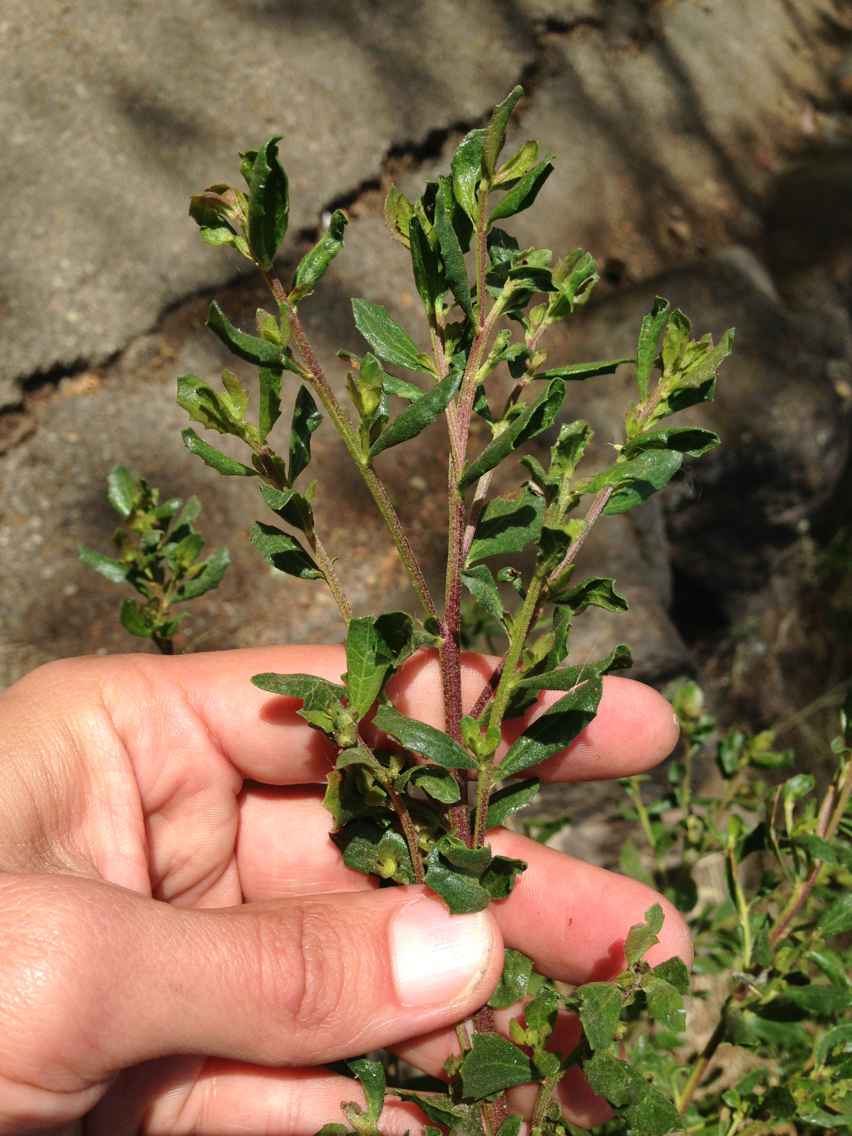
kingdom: Plantae
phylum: Tracheophyta
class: Magnoliopsida
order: Asterales
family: Asteraceae
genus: Baccharis
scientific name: Baccharis pilularis
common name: Coyotebrush
